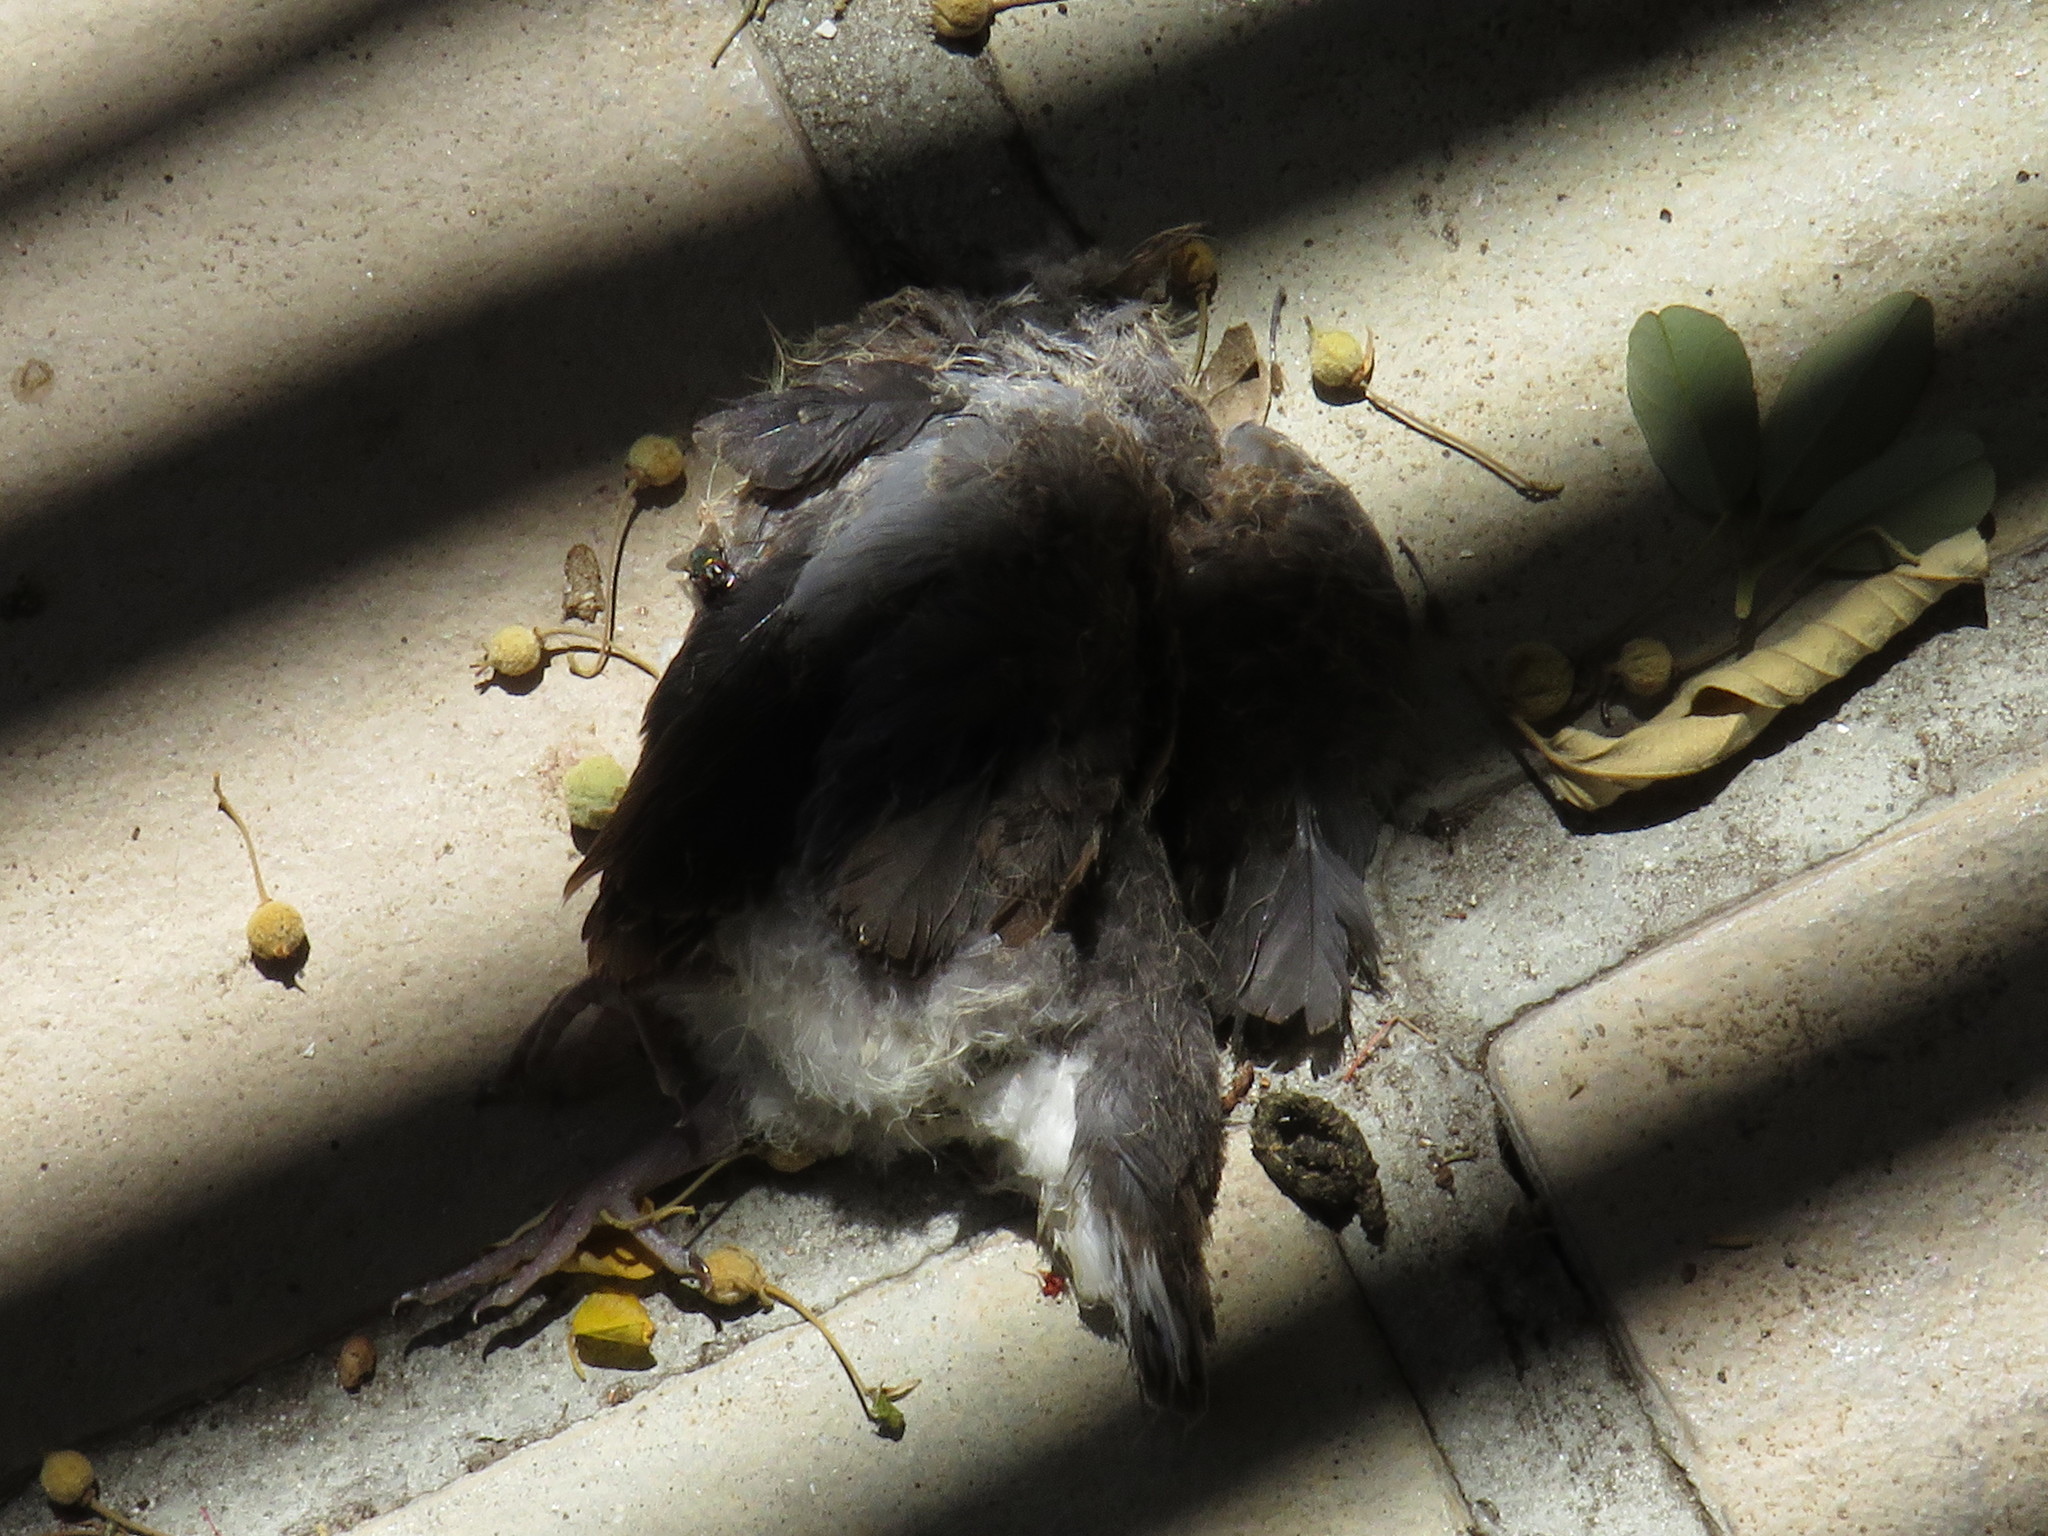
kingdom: Animalia
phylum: Chordata
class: Aves
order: Columbiformes
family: Columbidae
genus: Streptopelia
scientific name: Streptopelia capicola
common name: Ring-necked dove
